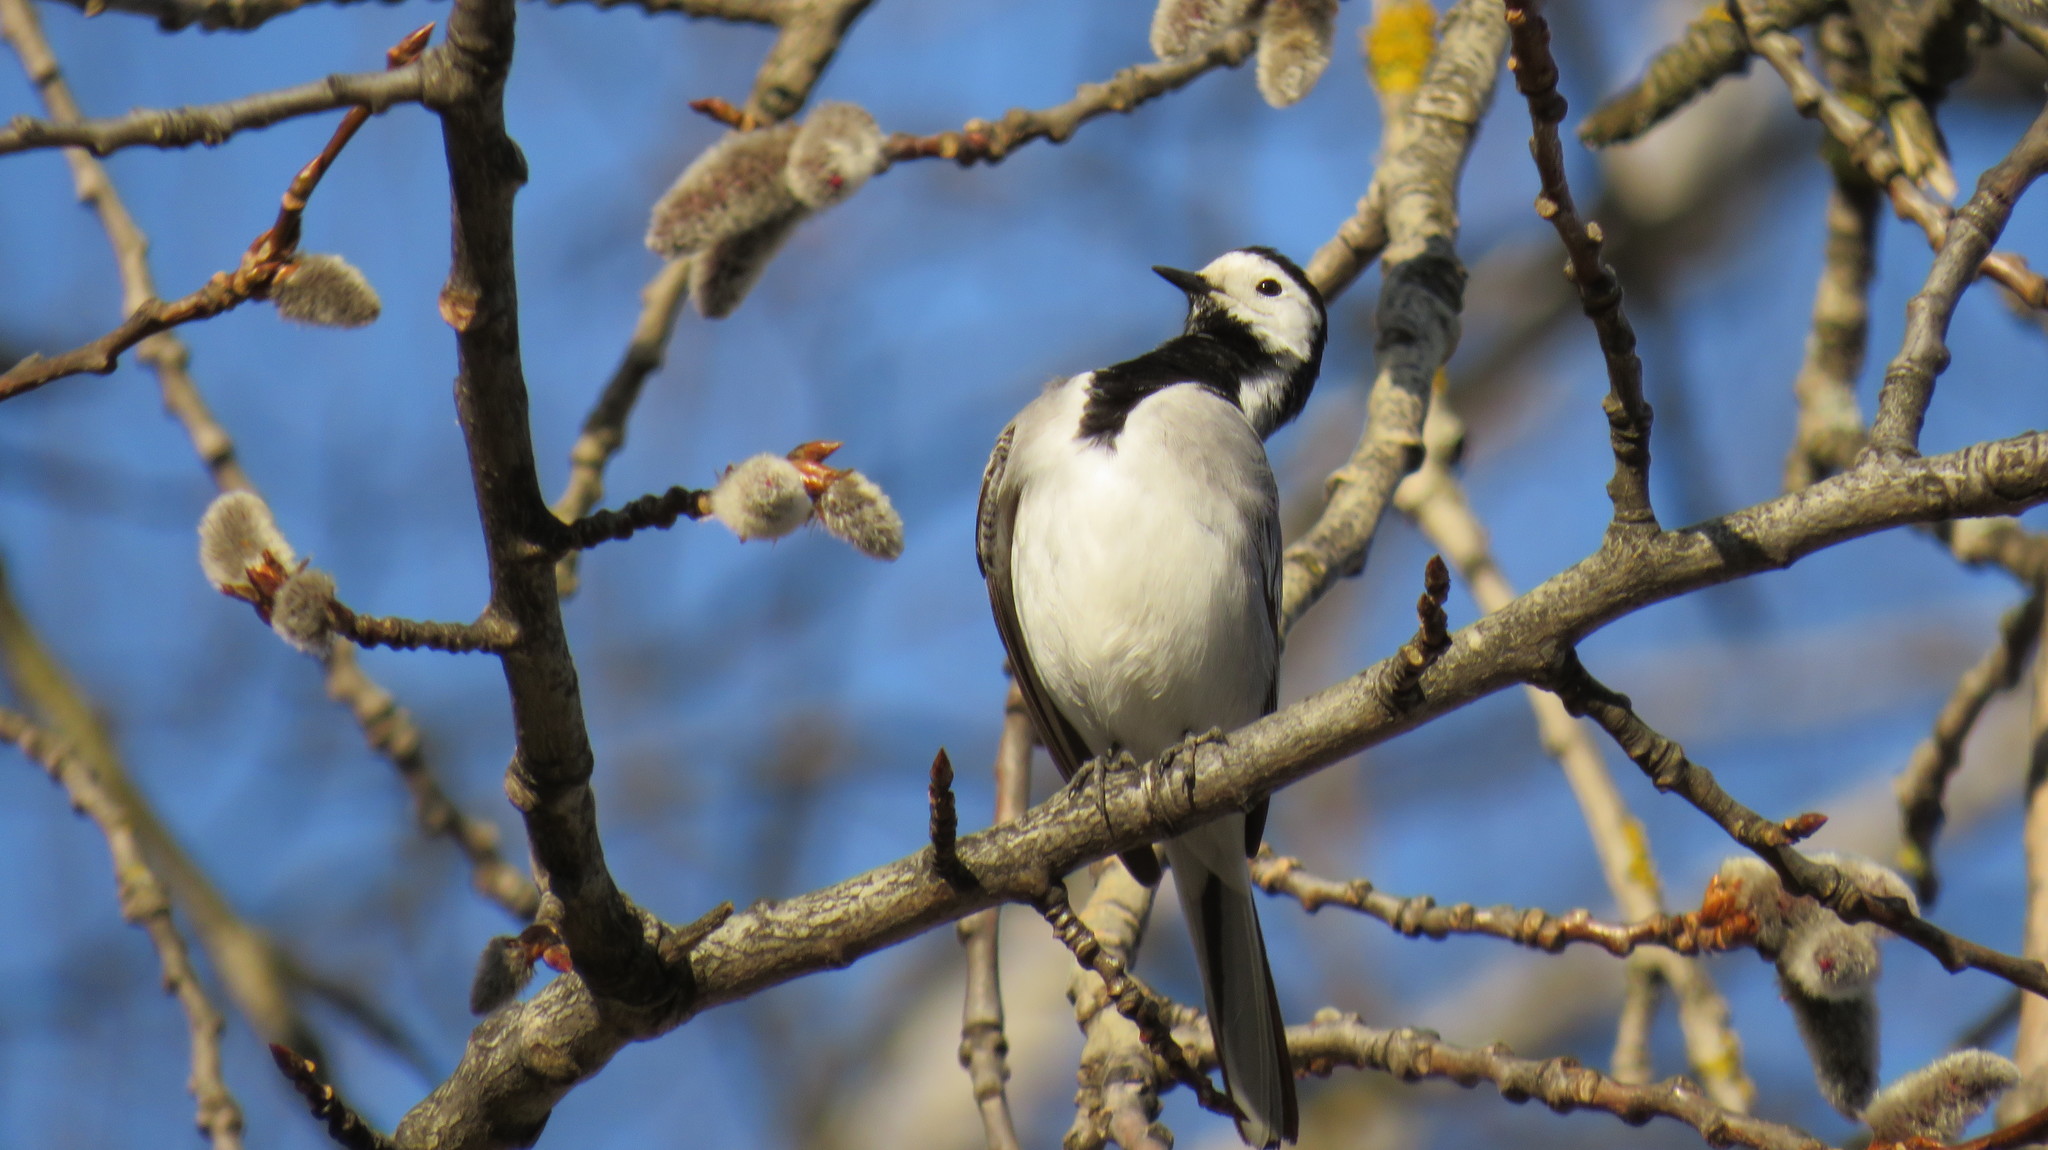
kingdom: Animalia
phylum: Chordata
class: Aves
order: Passeriformes
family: Motacillidae
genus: Motacilla
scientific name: Motacilla alba
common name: White wagtail
